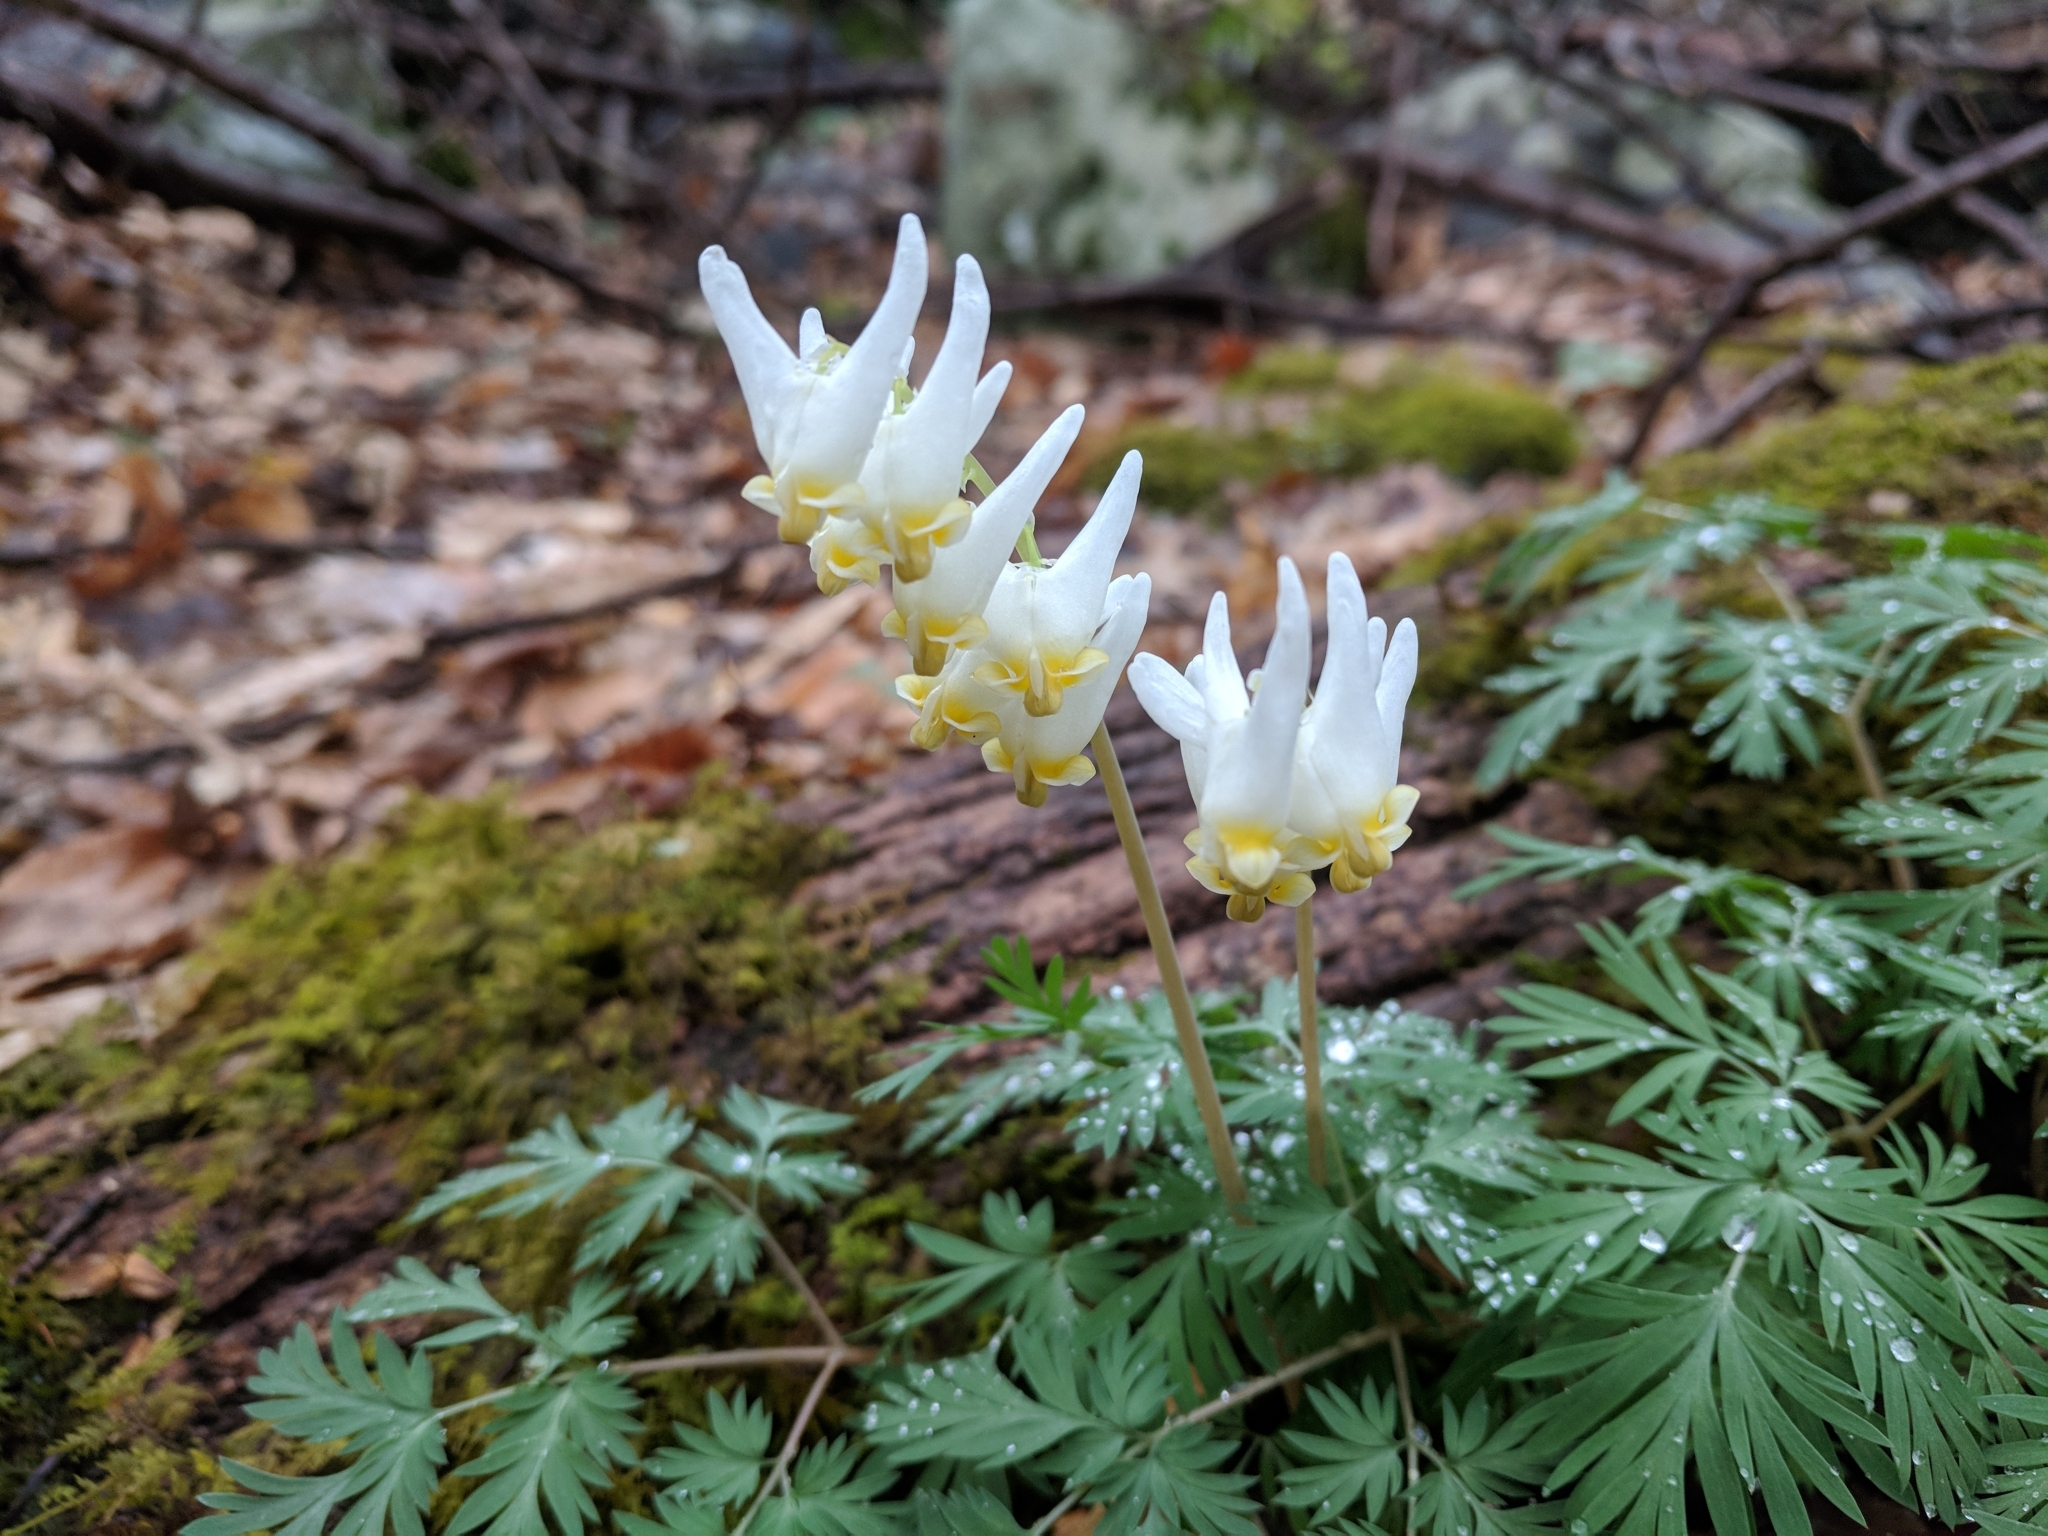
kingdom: Plantae
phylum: Tracheophyta
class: Magnoliopsida
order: Ranunculales
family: Papaveraceae
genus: Dicentra
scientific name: Dicentra cucullaria
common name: Dutchman's breeches
